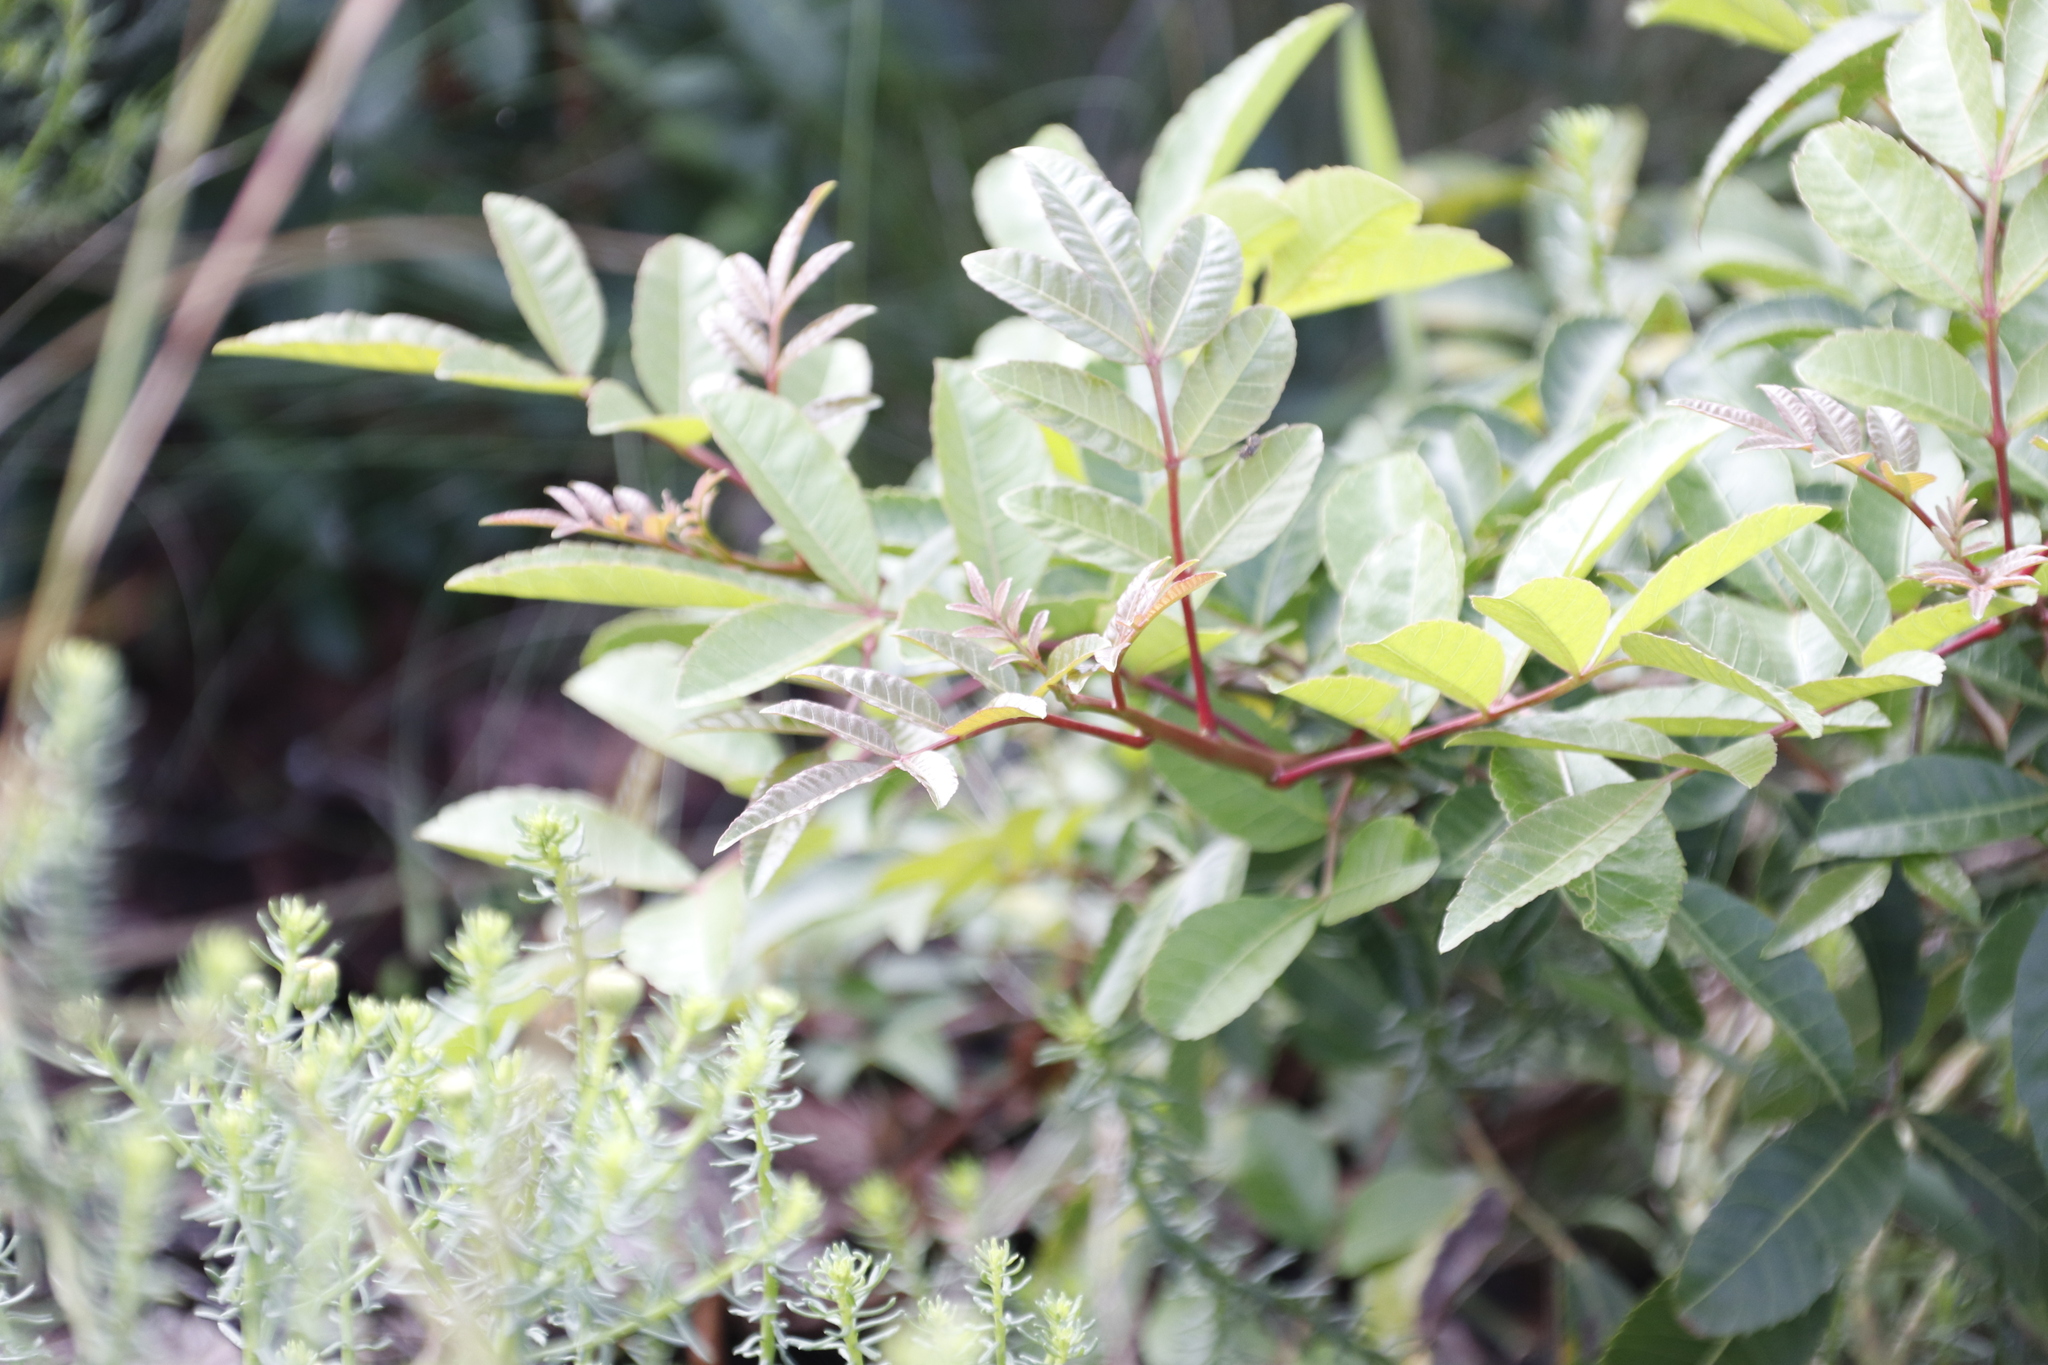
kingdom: Plantae
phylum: Tracheophyta
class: Magnoliopsida
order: Sapindales
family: Anacardiaceae
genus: Schinus
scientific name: Schinus terebinthifolia
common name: Brazilian peppertree
